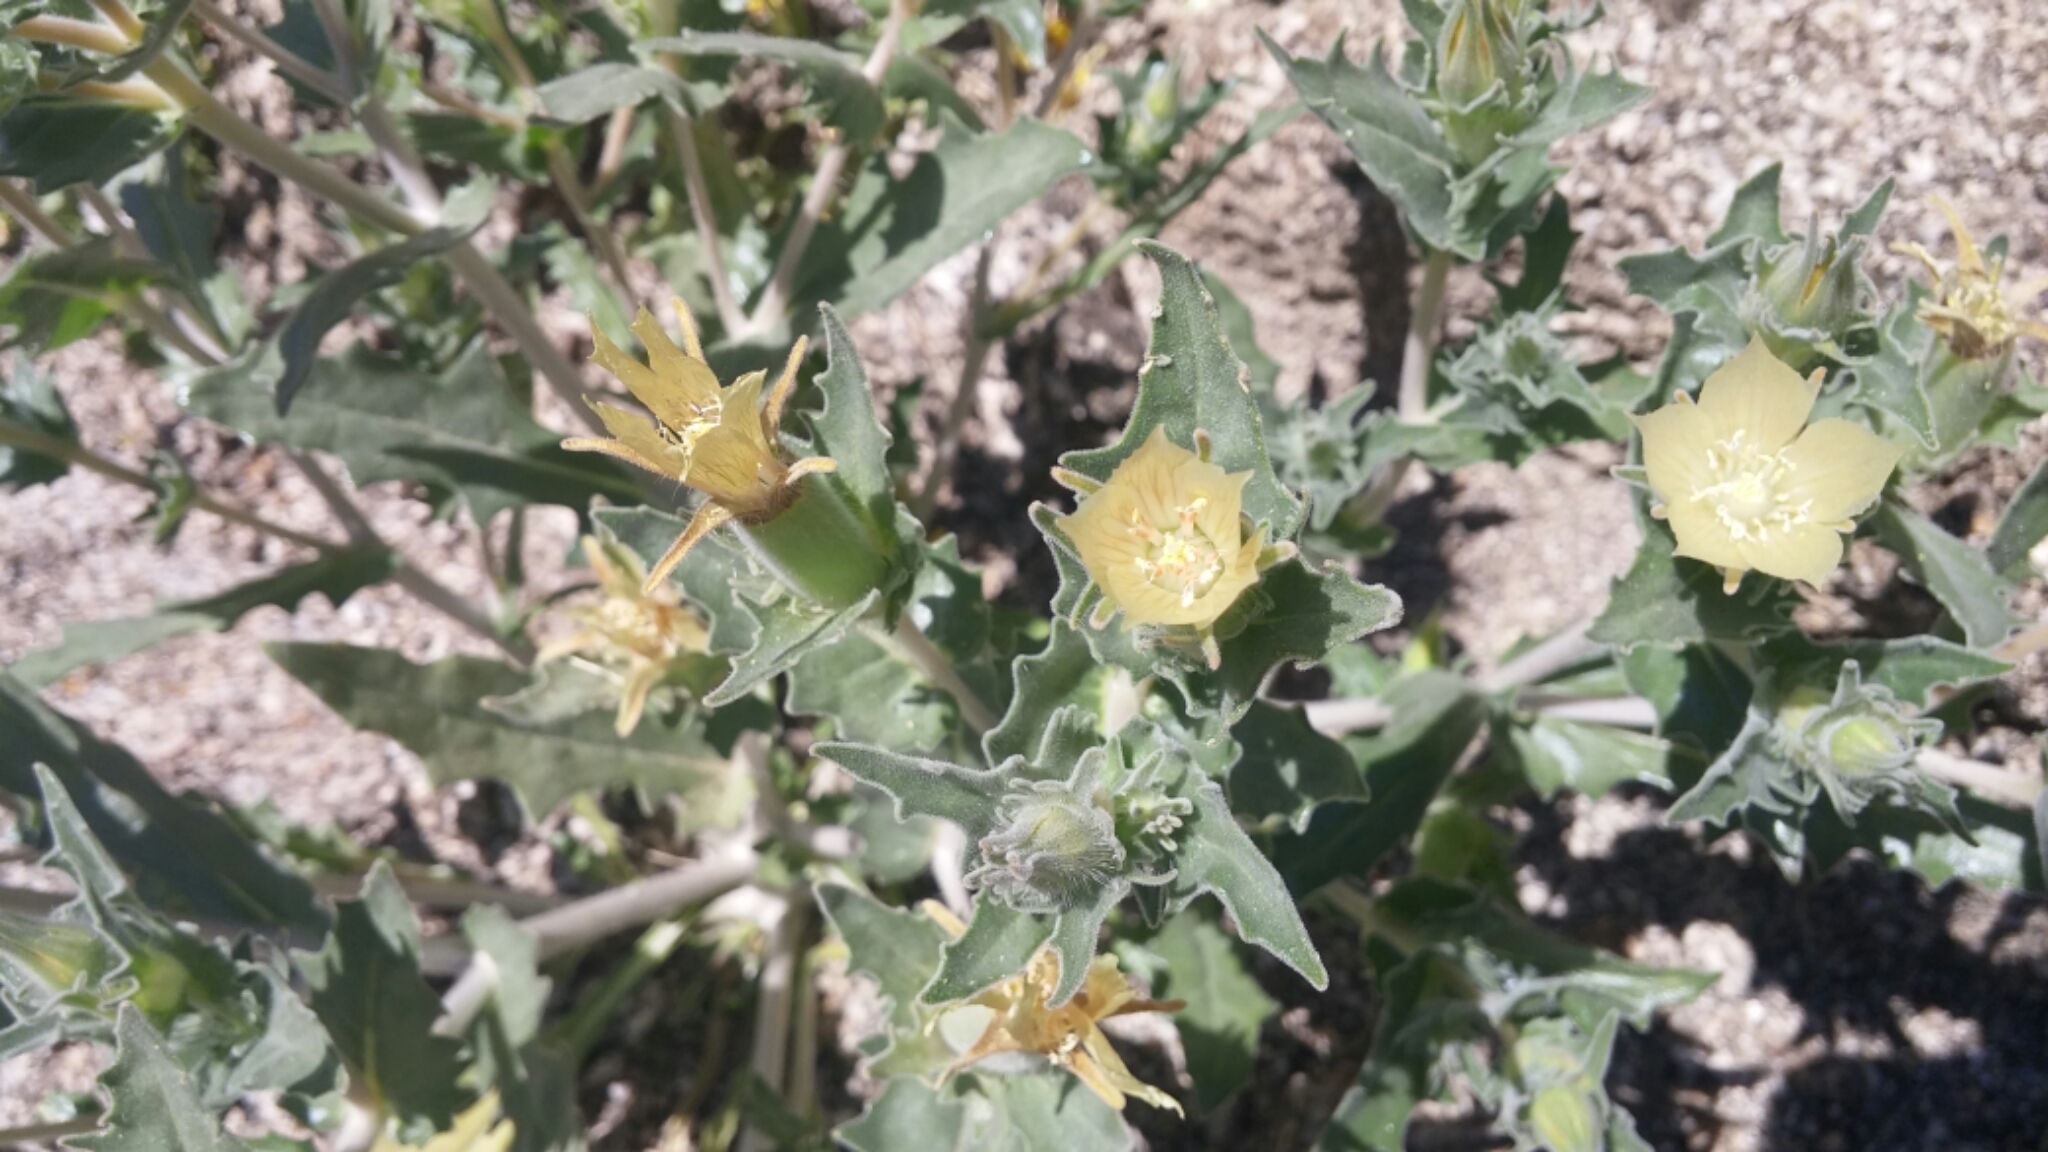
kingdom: Plantae
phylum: Tracheophyta
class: Magnoliopsida
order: Cornales
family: Loasaceae
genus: Mentzelia
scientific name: Mentzelia involucrata
